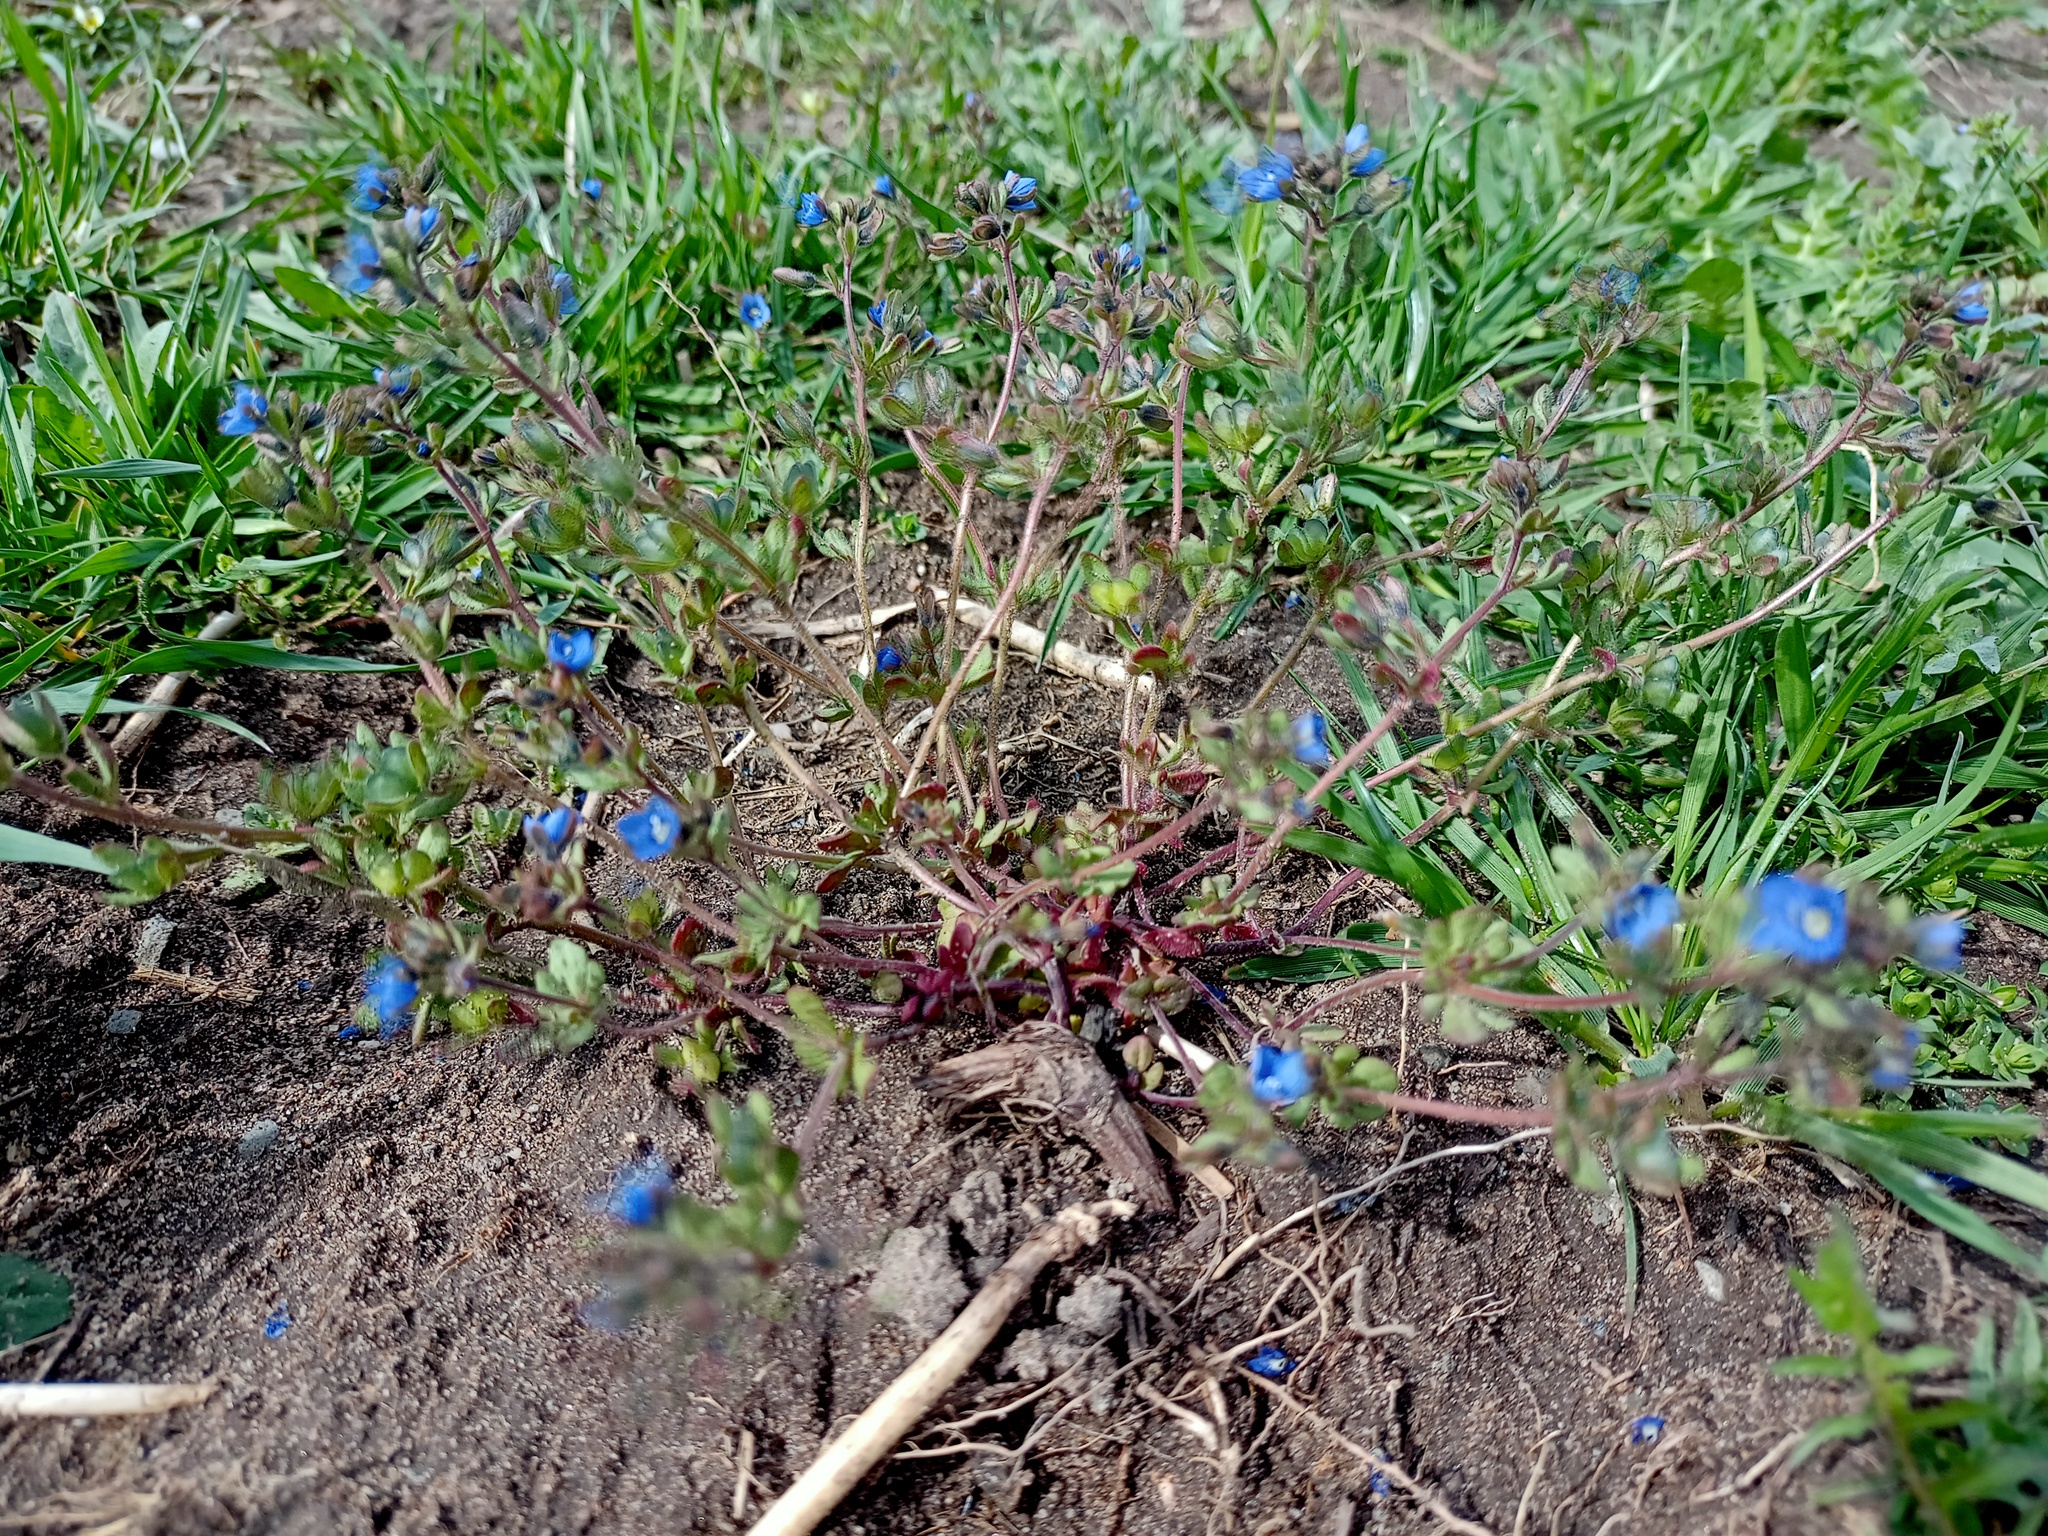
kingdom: Plantae
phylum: Tracheophyta
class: Magnoliopsida
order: Lamiales
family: Plantaginaceae
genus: Veronica
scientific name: Veronica triphyllos
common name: Fingered speedwell
